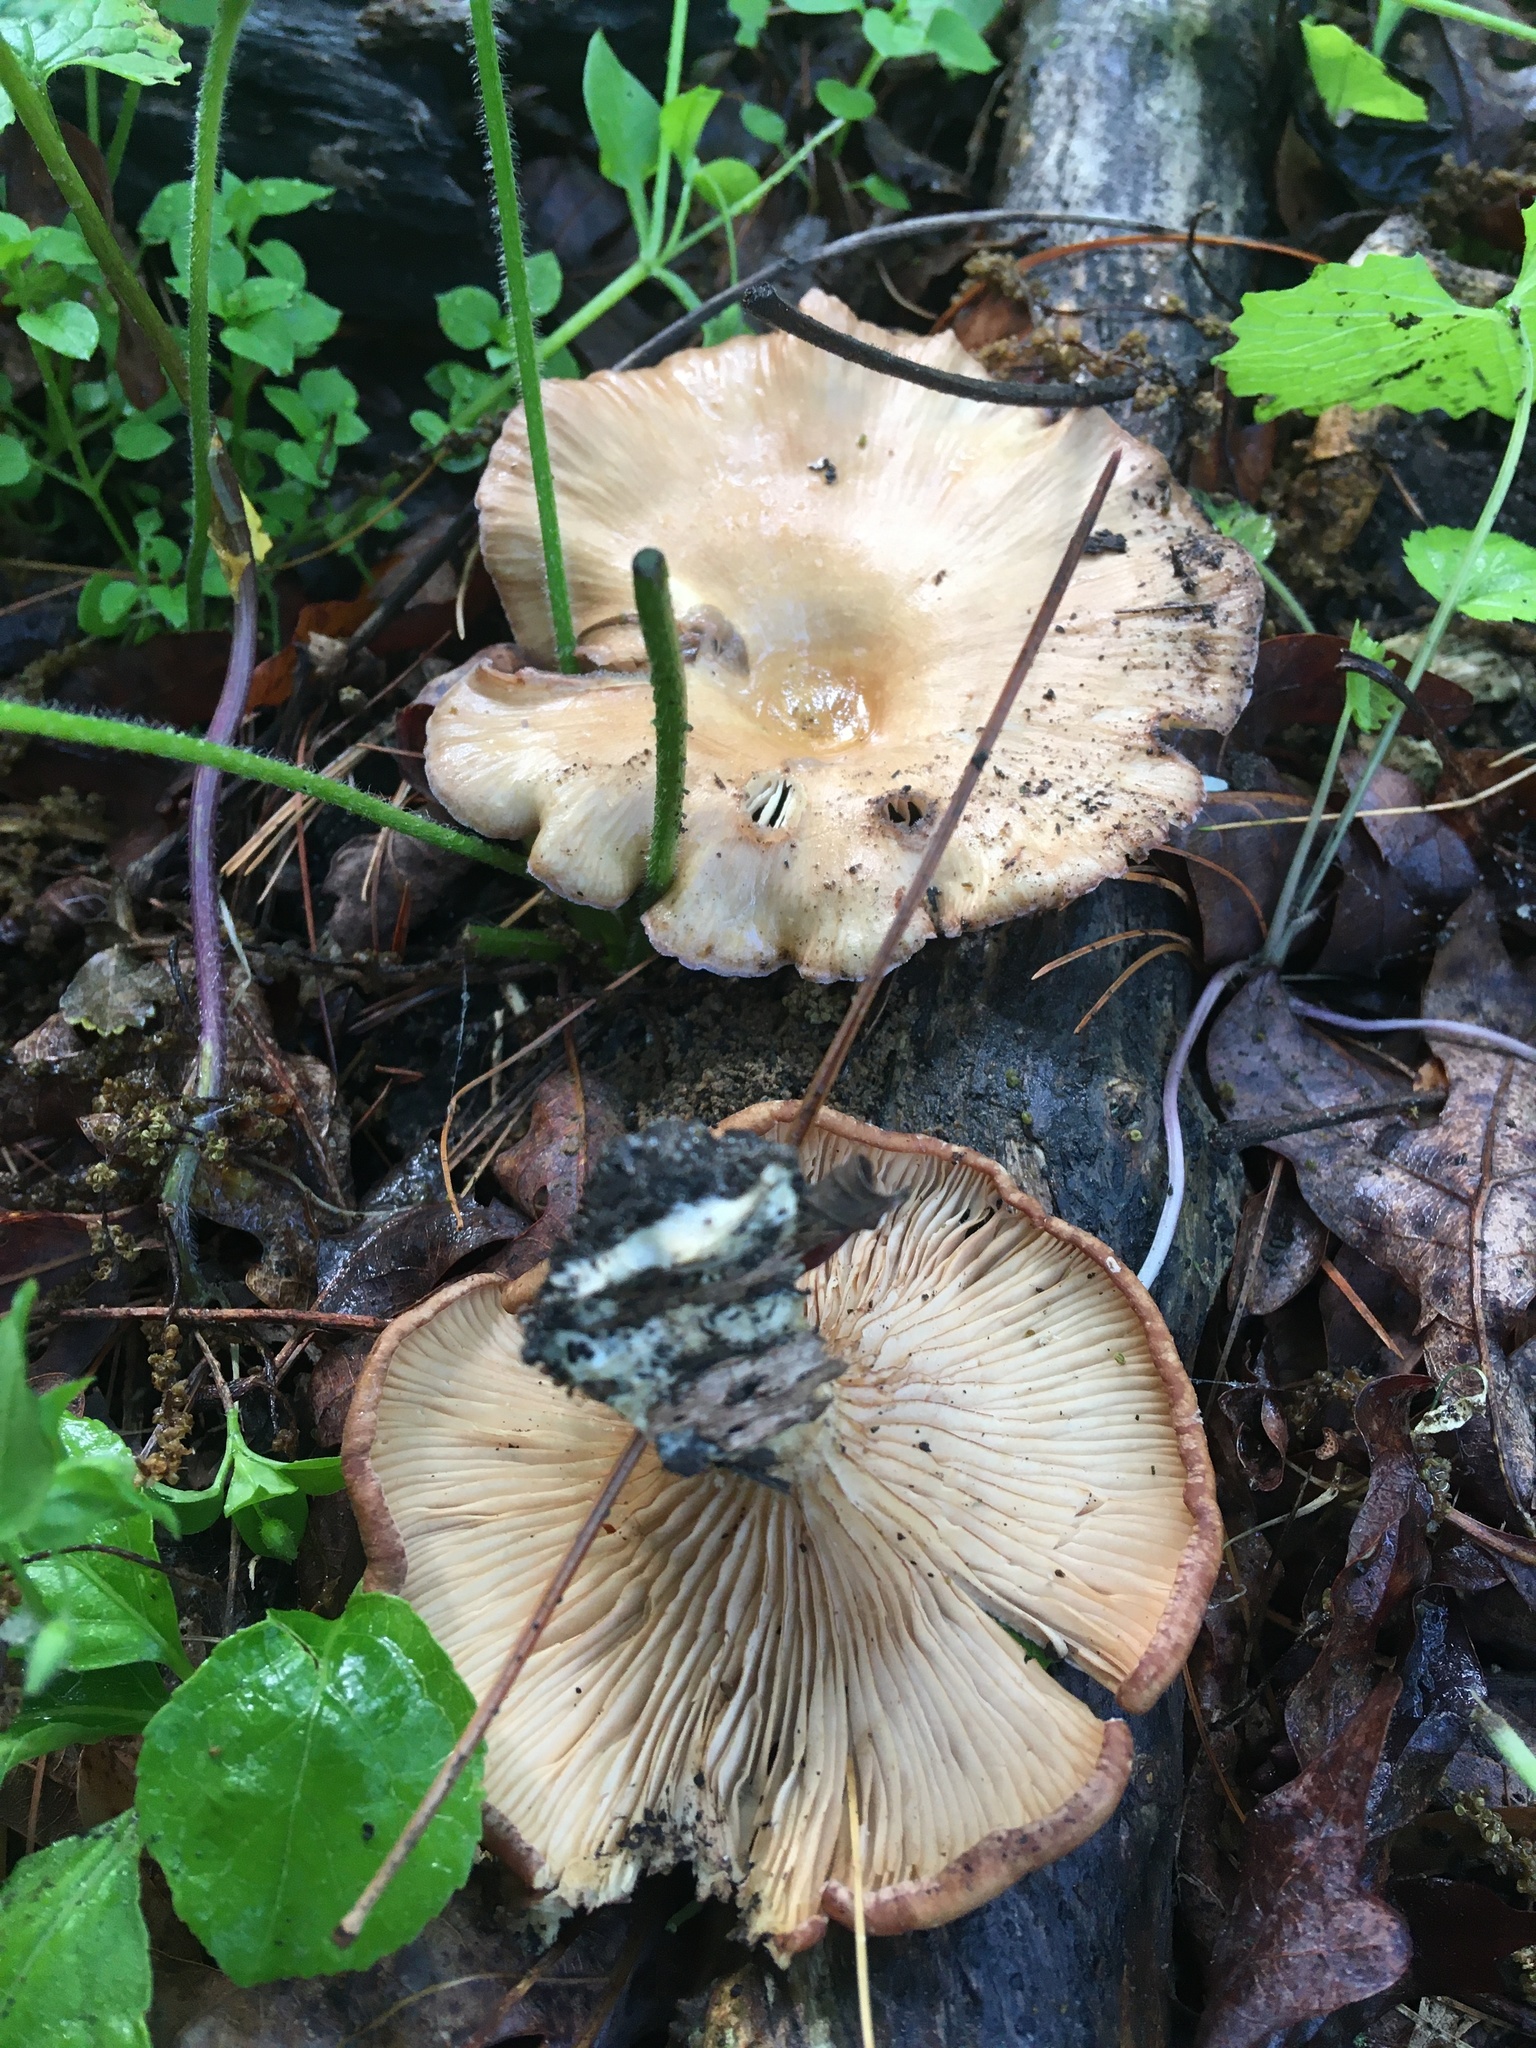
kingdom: Fungi
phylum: Basidiomycota
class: Agaricomycetes
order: Polyporales
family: Panaceae
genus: Panus
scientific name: Panus conchatus
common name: Lilac oysterling
